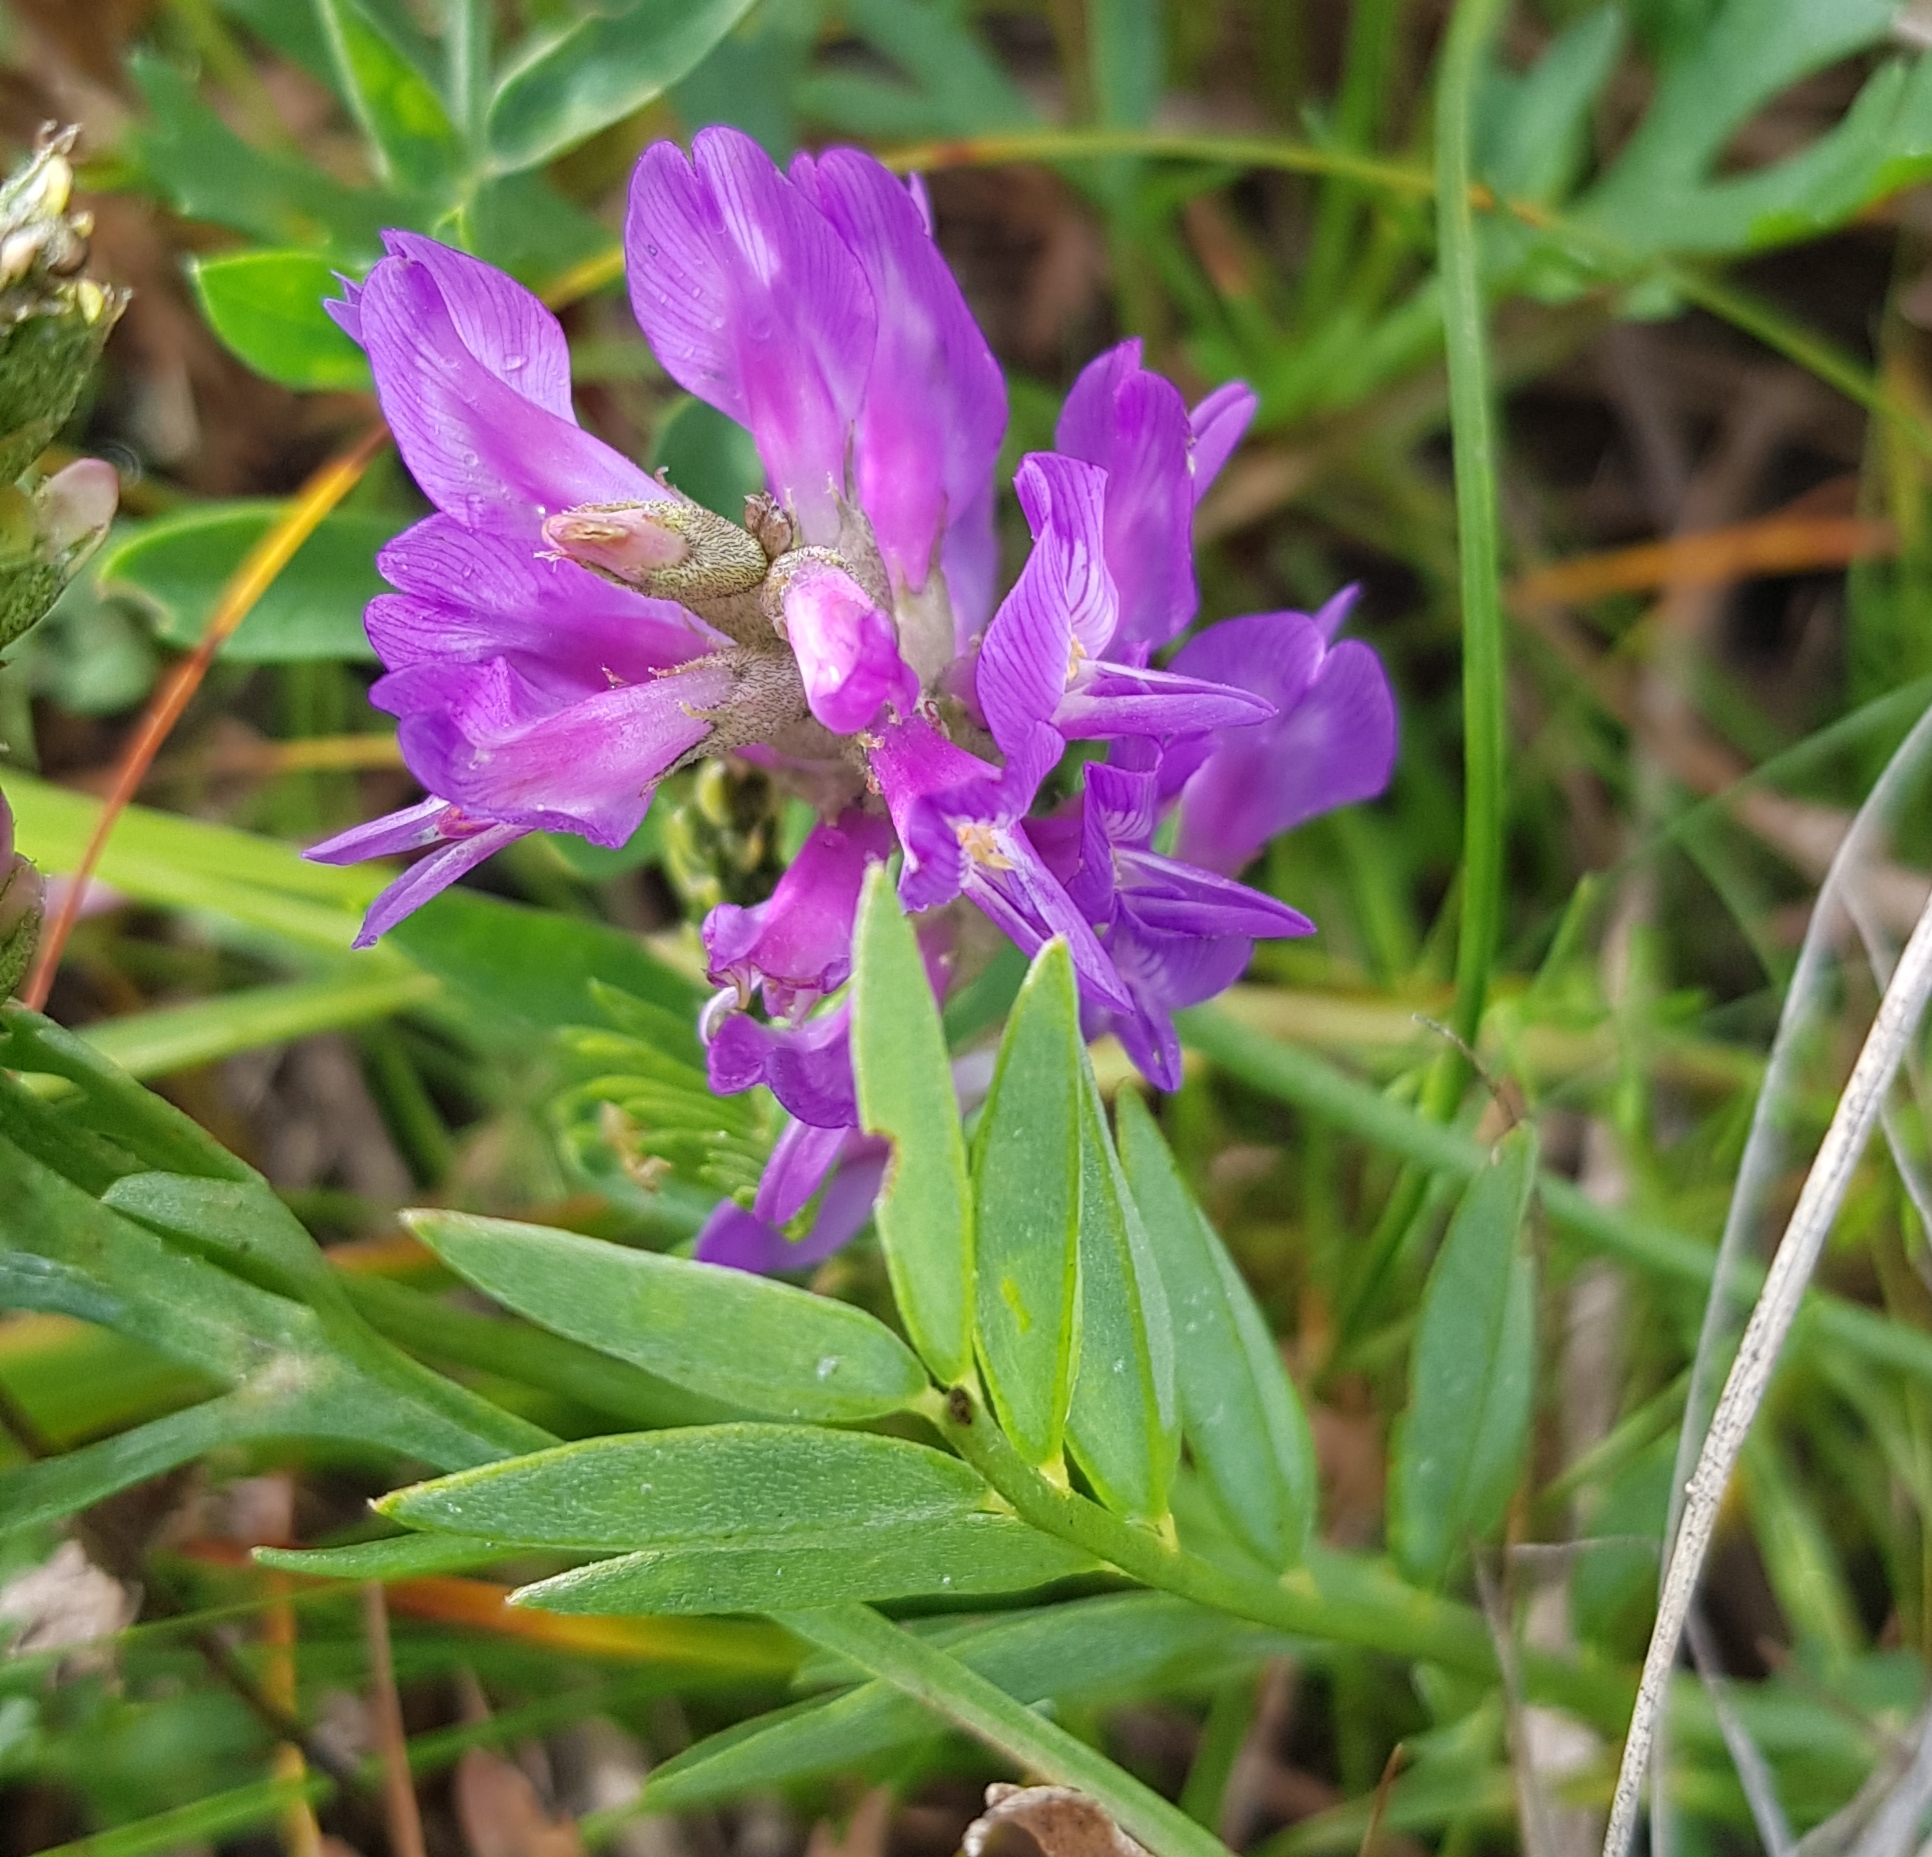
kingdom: Plantae
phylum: Tracheophyta
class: Magnoliopsida
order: Fabales
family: Fabaceae
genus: Astragalus
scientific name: Astragalus laxmannii
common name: Laxmann's milk-vetch
